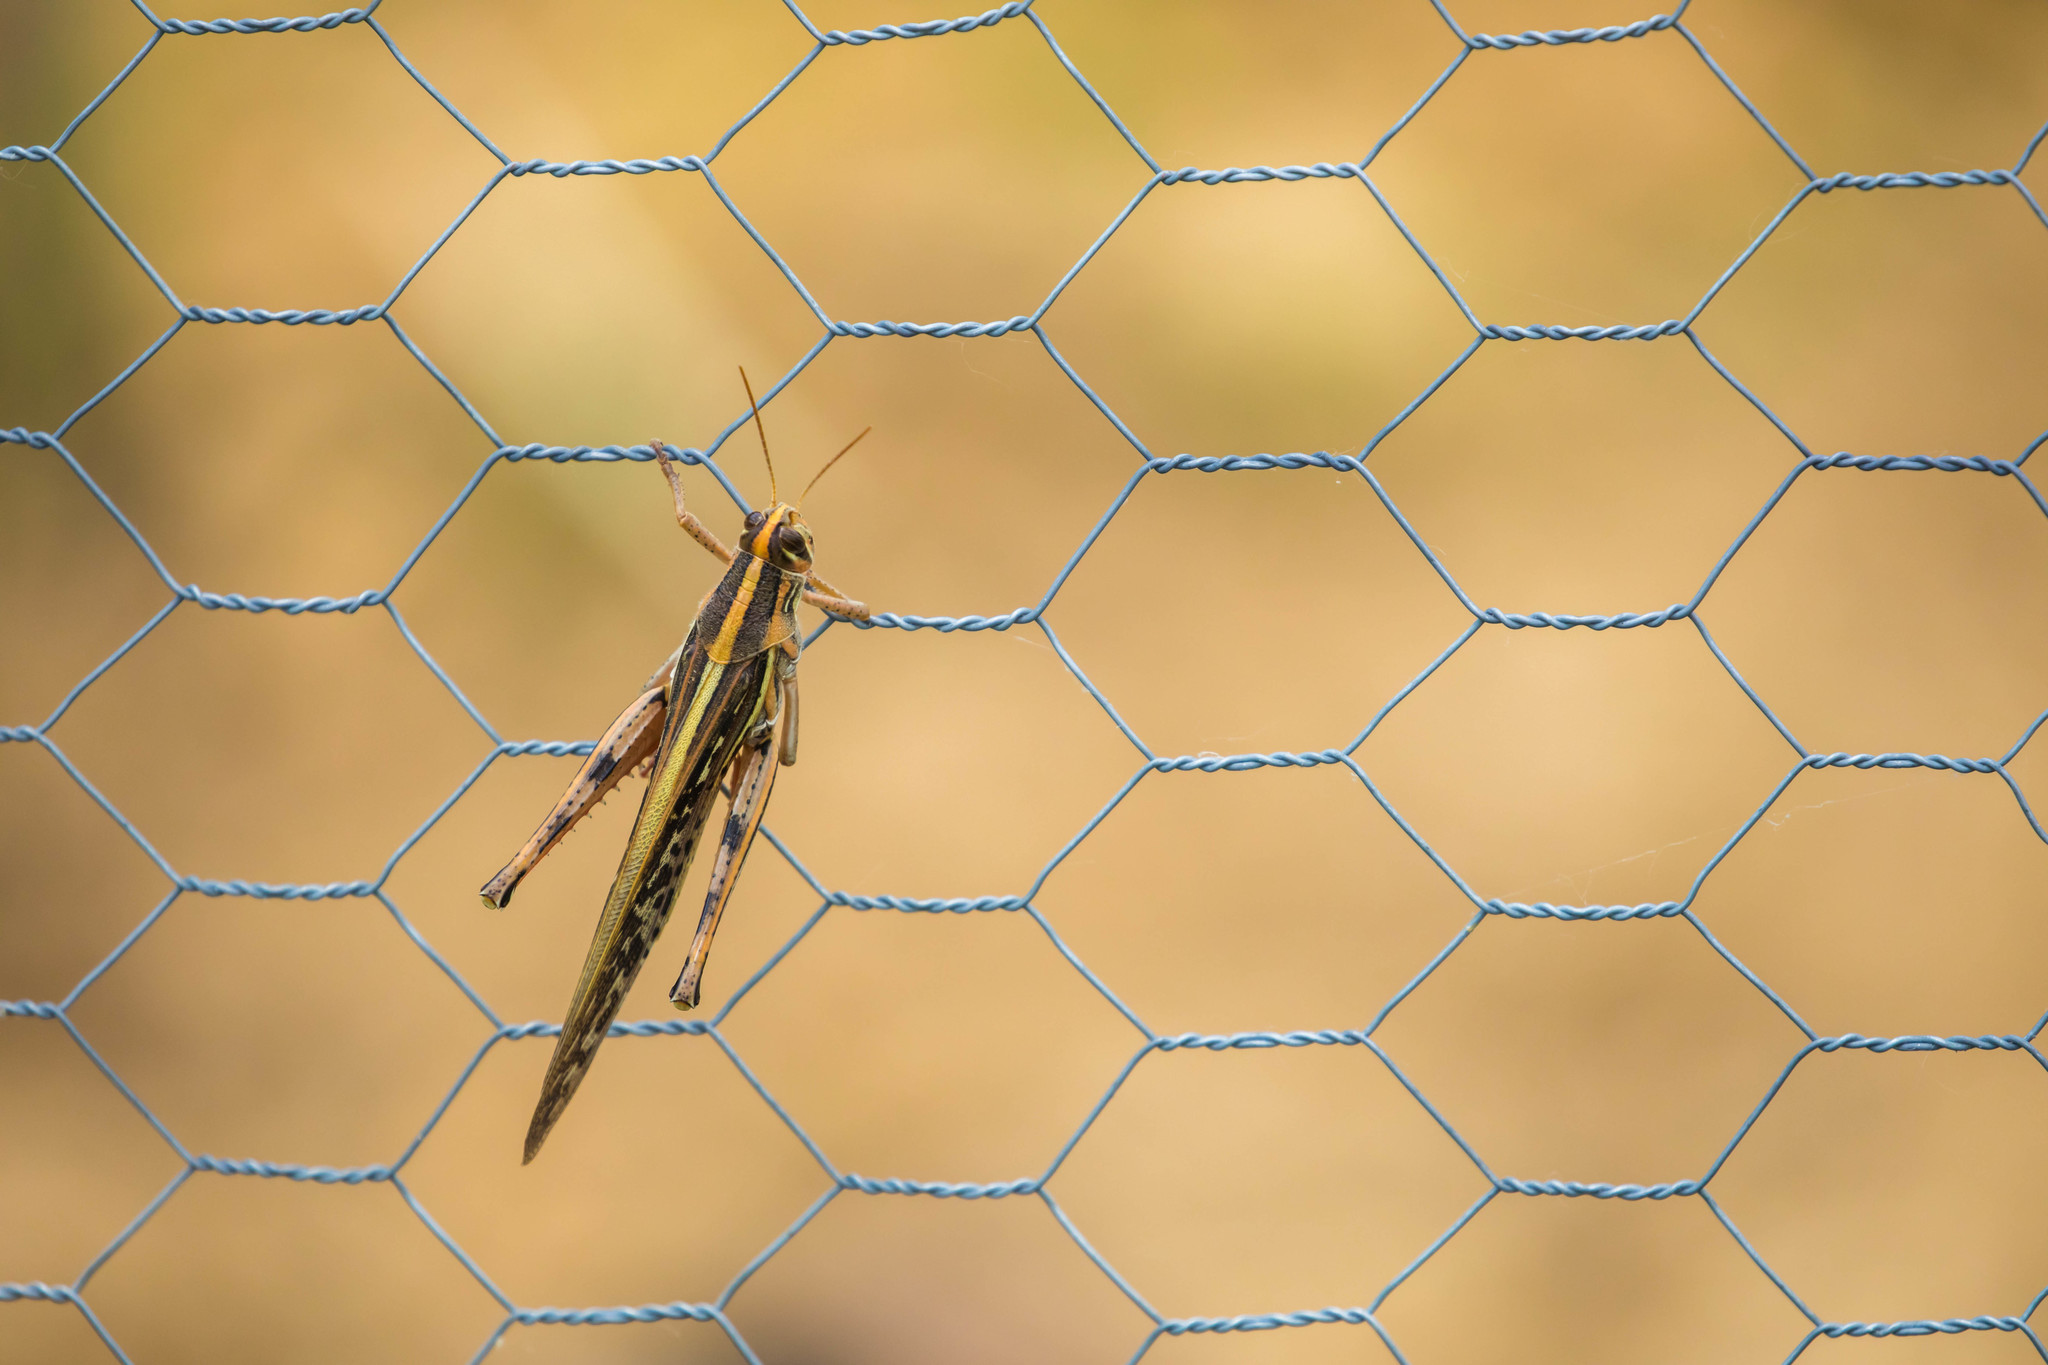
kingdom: Animalia
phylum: Arthropoda
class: Insecta
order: Orthoptera
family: Acrididae
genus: Schistocerca
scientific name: Schistocerca americana
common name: American bird locust
